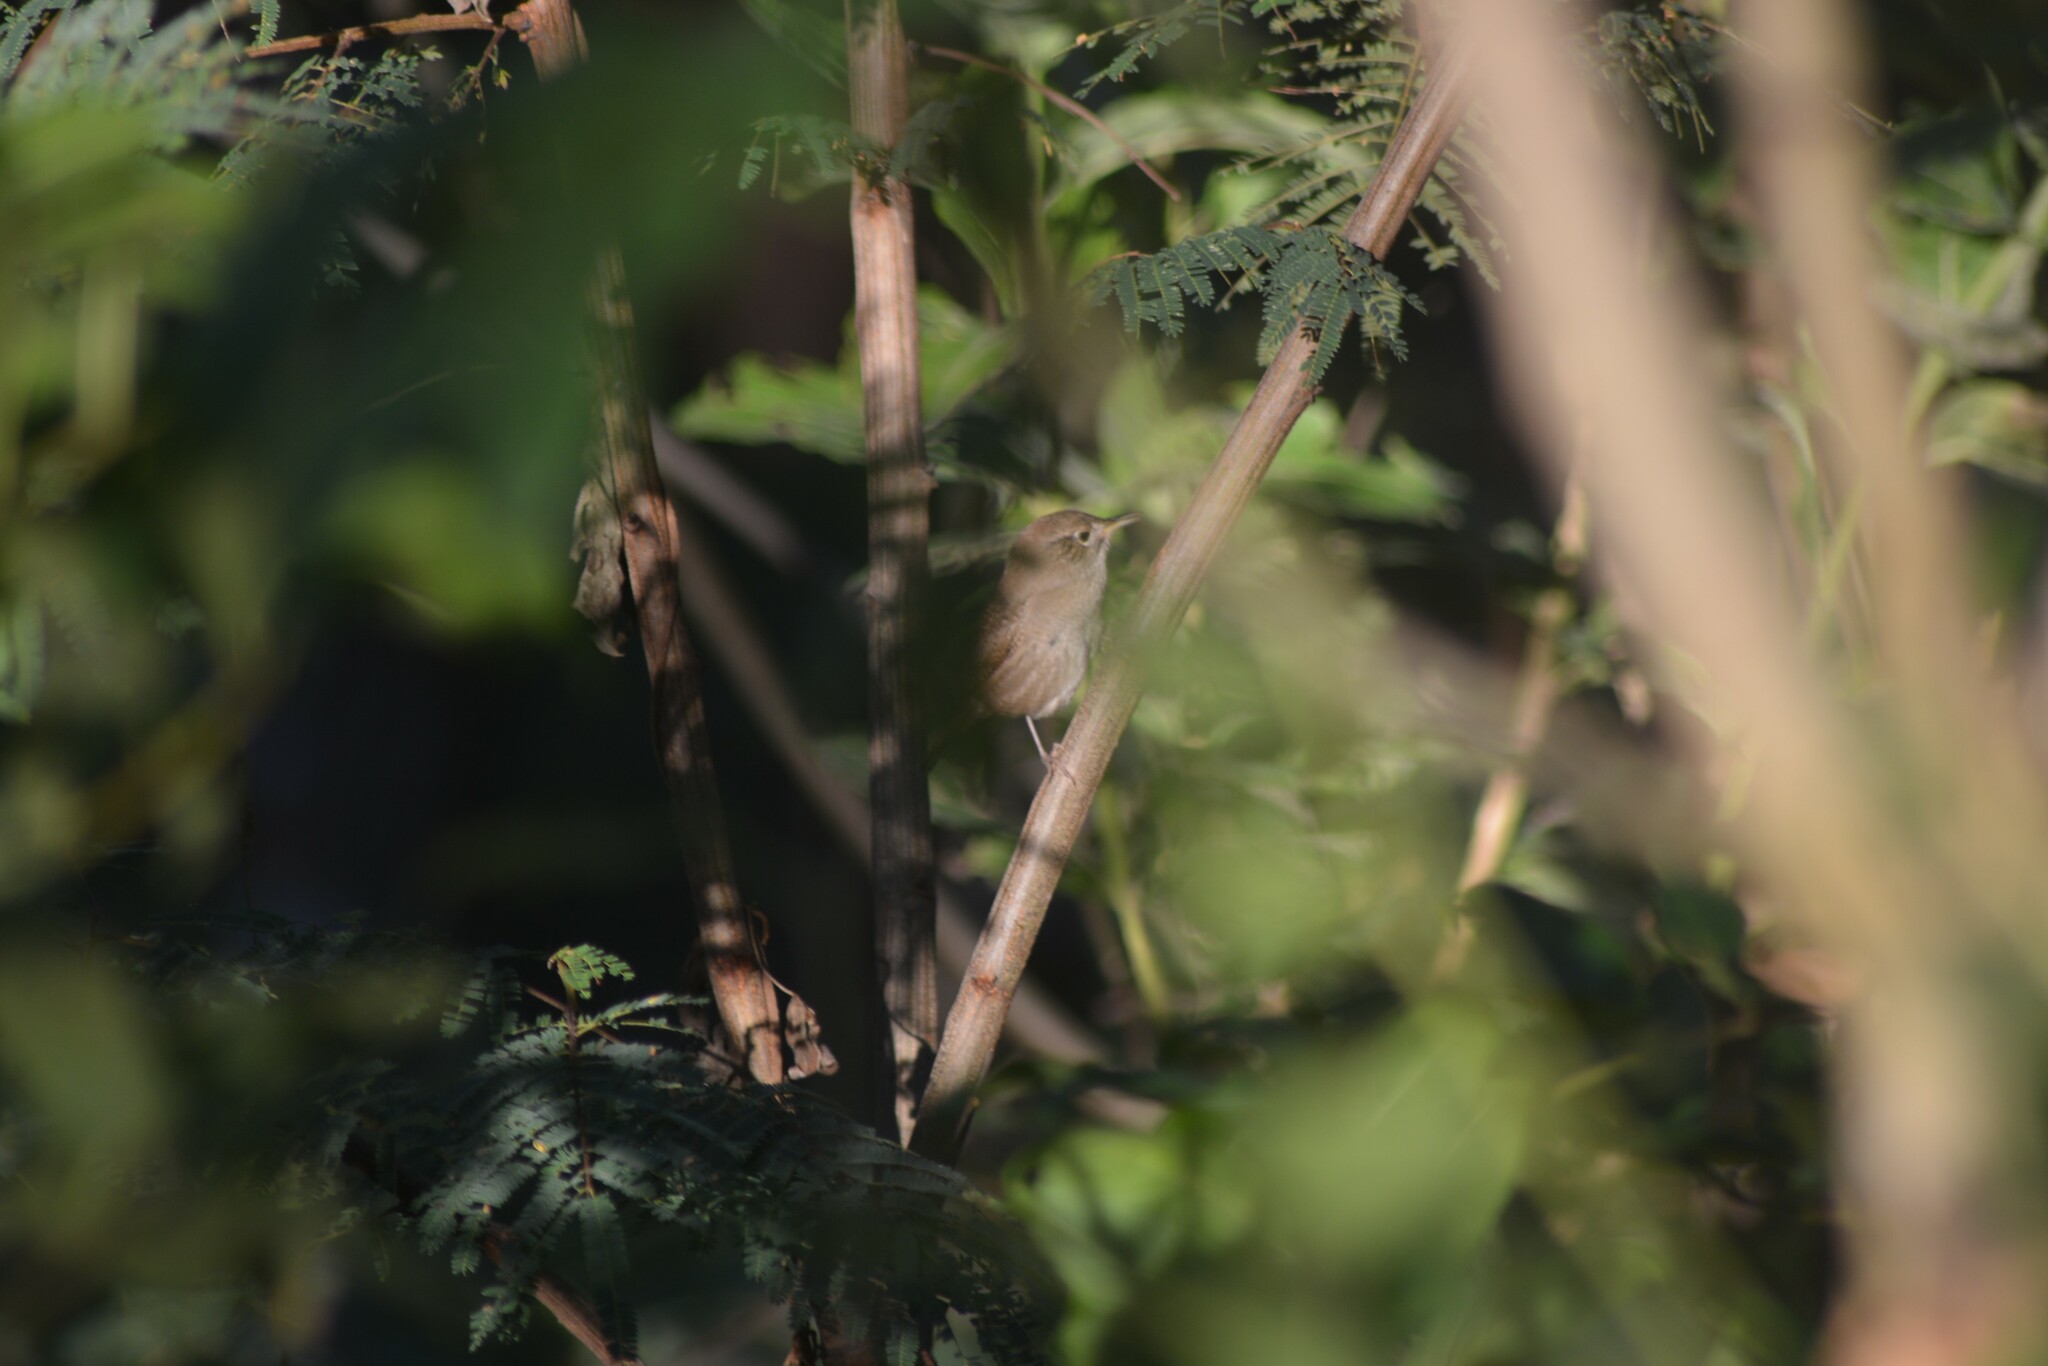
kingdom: Animalia
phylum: Chordata
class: Aves
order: Passeriformes
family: Troglodytidae
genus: Troglodytes
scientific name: Troglodytes aedon
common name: House wren
